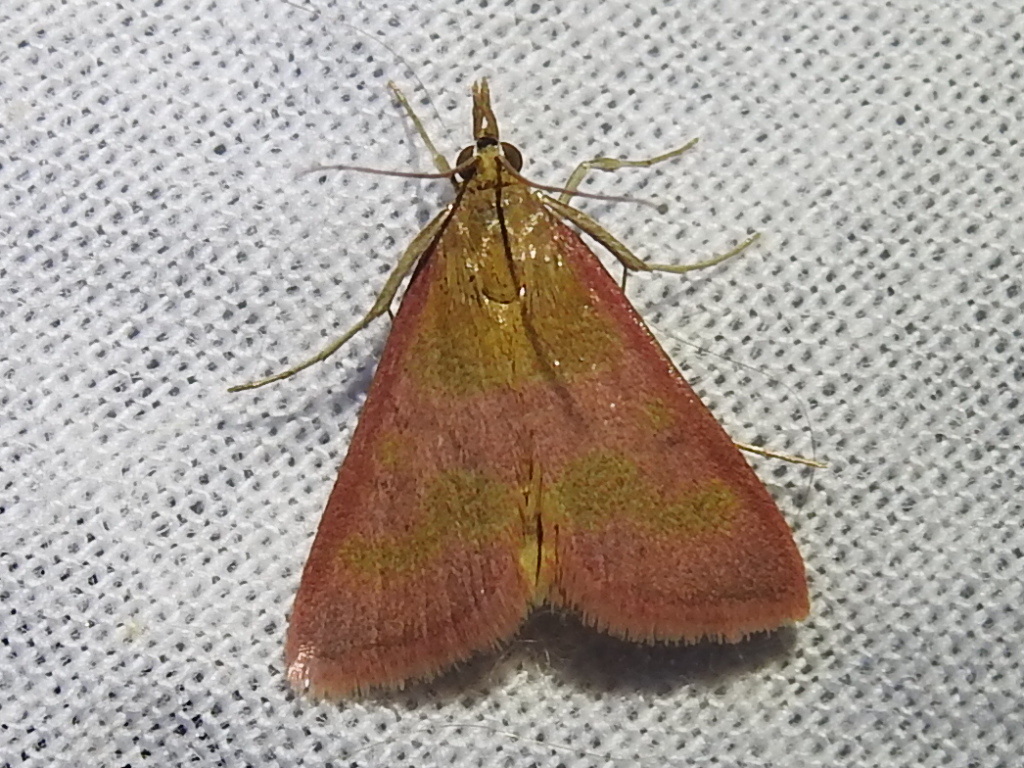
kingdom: Animalia
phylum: Arthropoda
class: Insecta
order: Lepidoptera
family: Crambidae
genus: Pyrausta
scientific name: Pyrausta laticlavia
